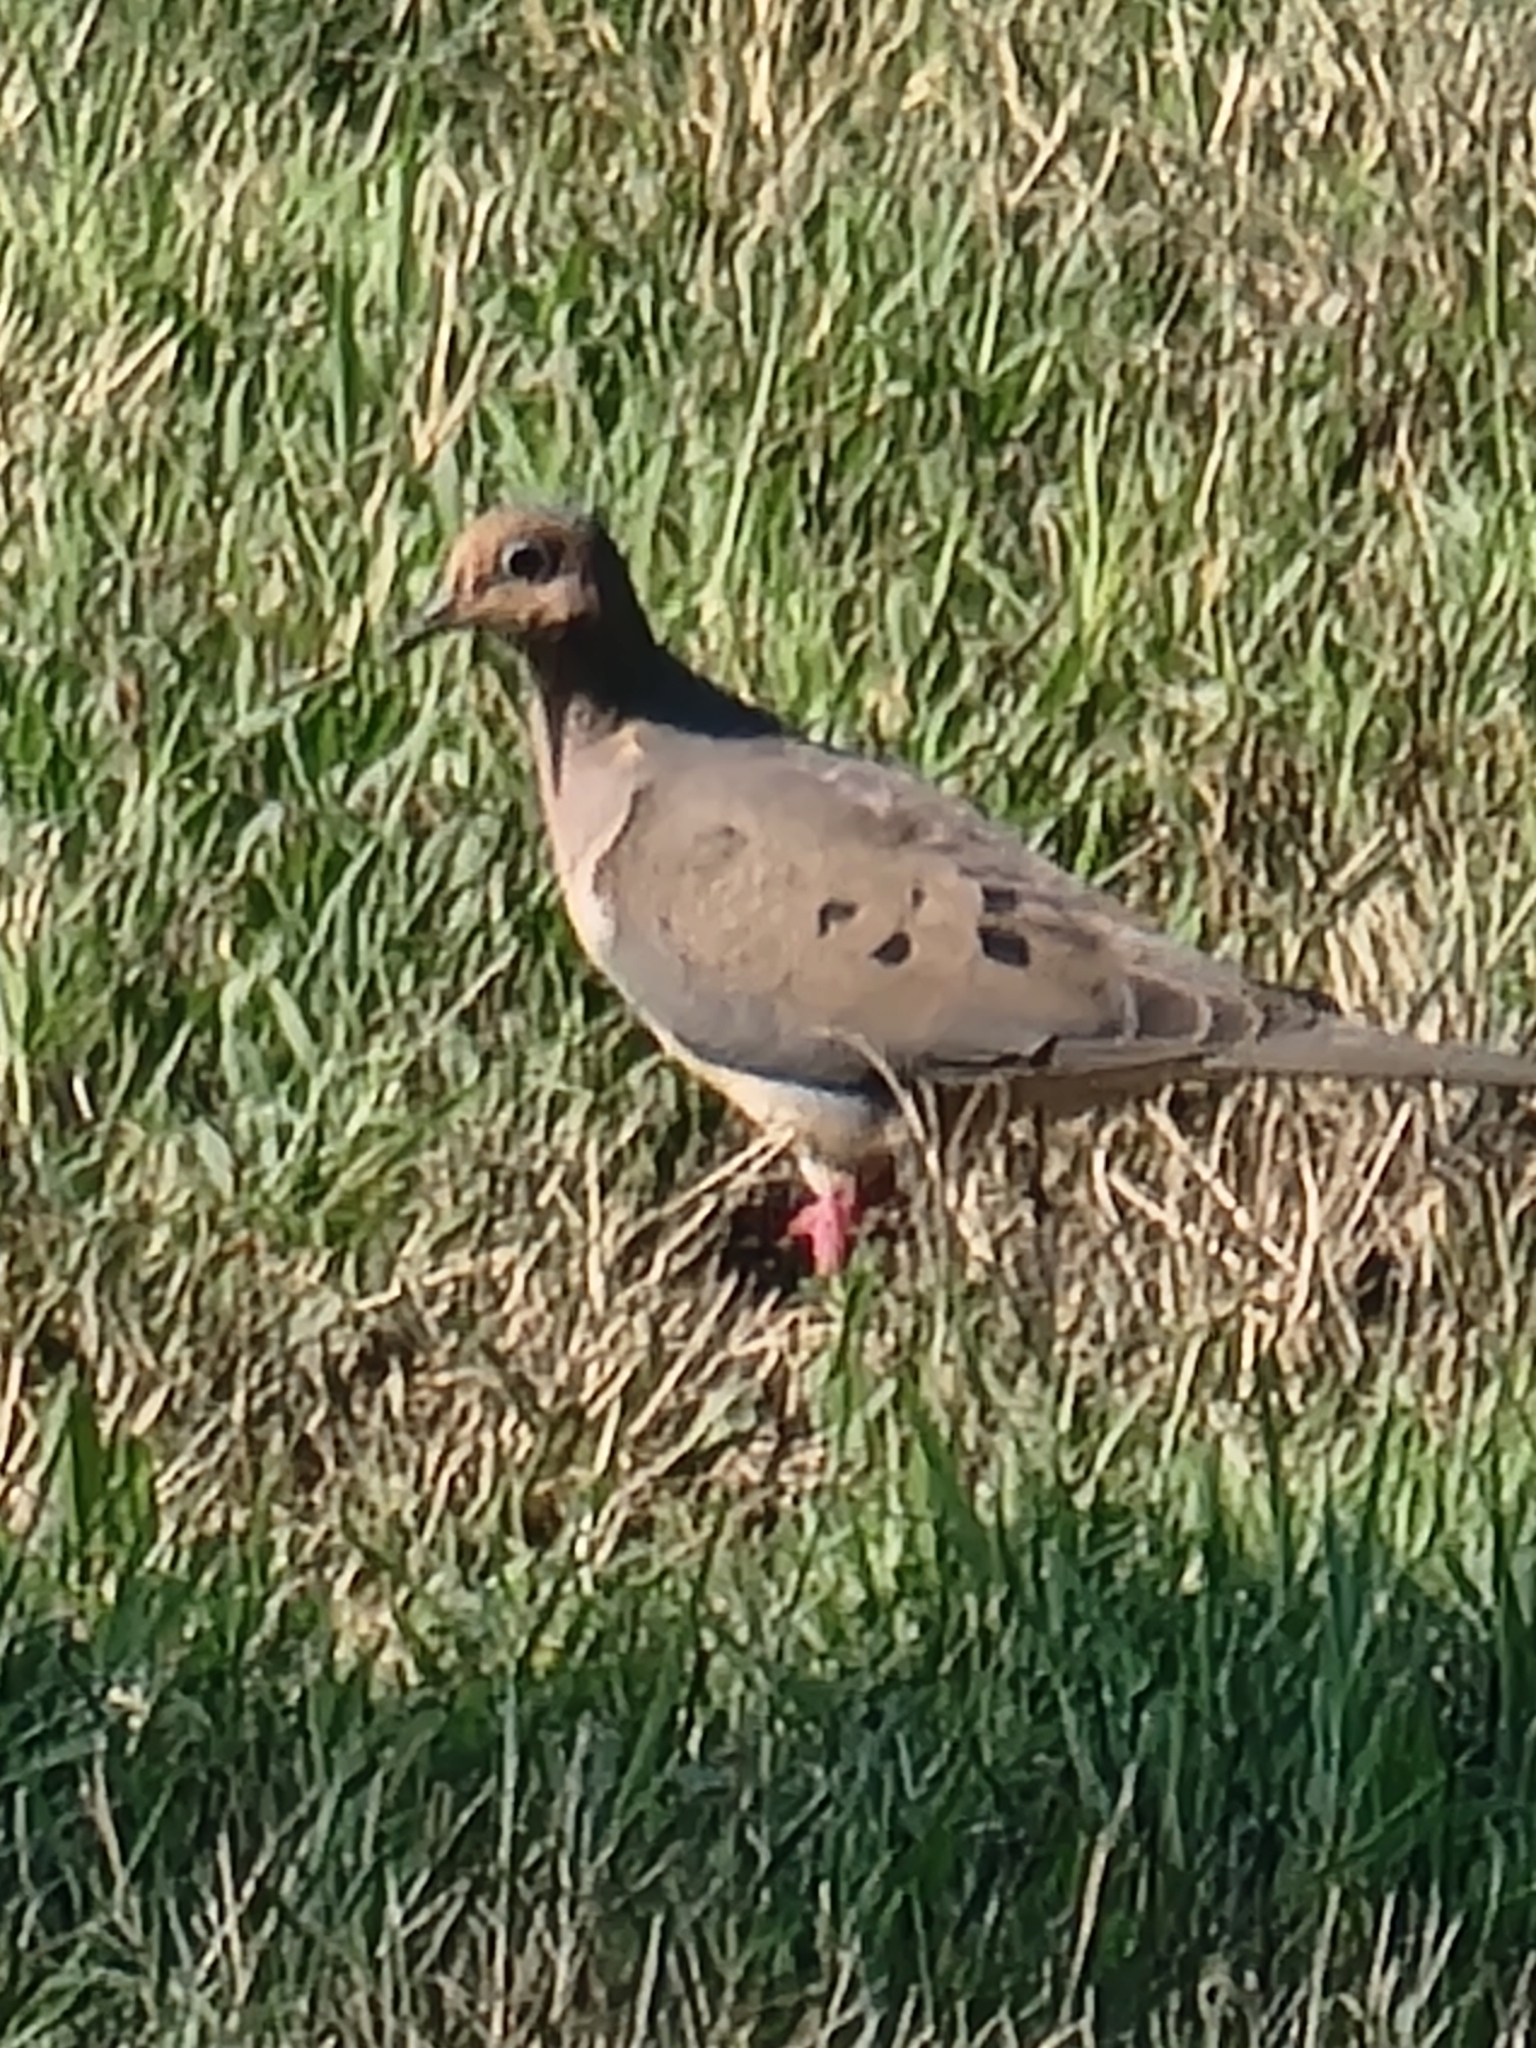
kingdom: Animalia
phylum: Chordata
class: Aves
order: Columbiformes
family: Columbidae
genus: Zenaida
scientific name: Zenaida macroura
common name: Mourning dove
